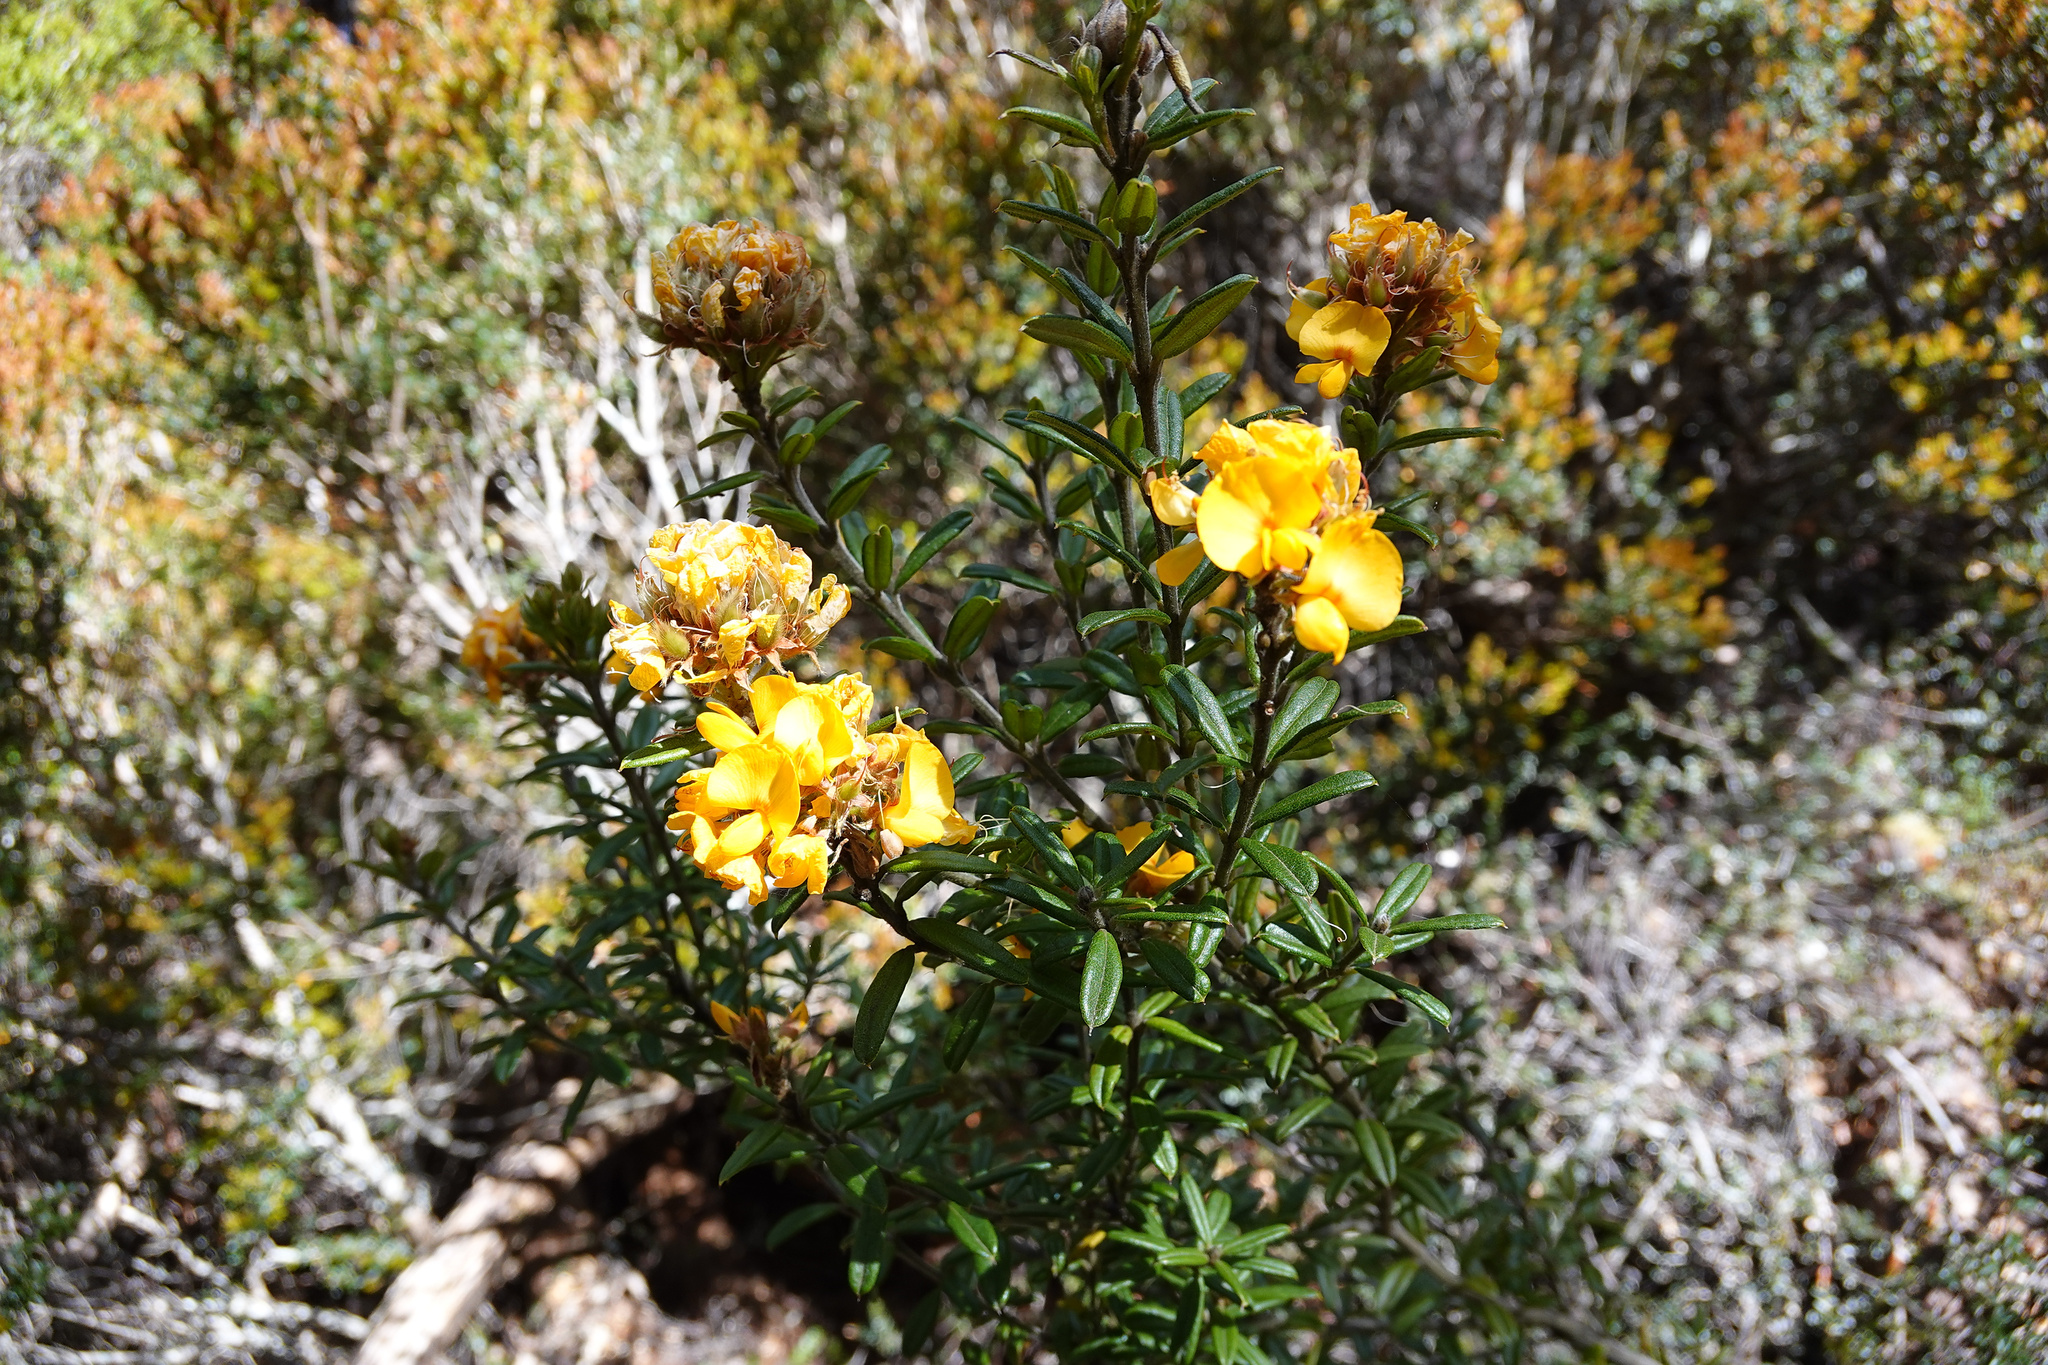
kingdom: Plantae
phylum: Tracheophyta
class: Magnoliopsida
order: Fabales
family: Fabaceae
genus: Oxylobium
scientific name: Oxylobium ellipticum
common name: Golden shaggy-pea
